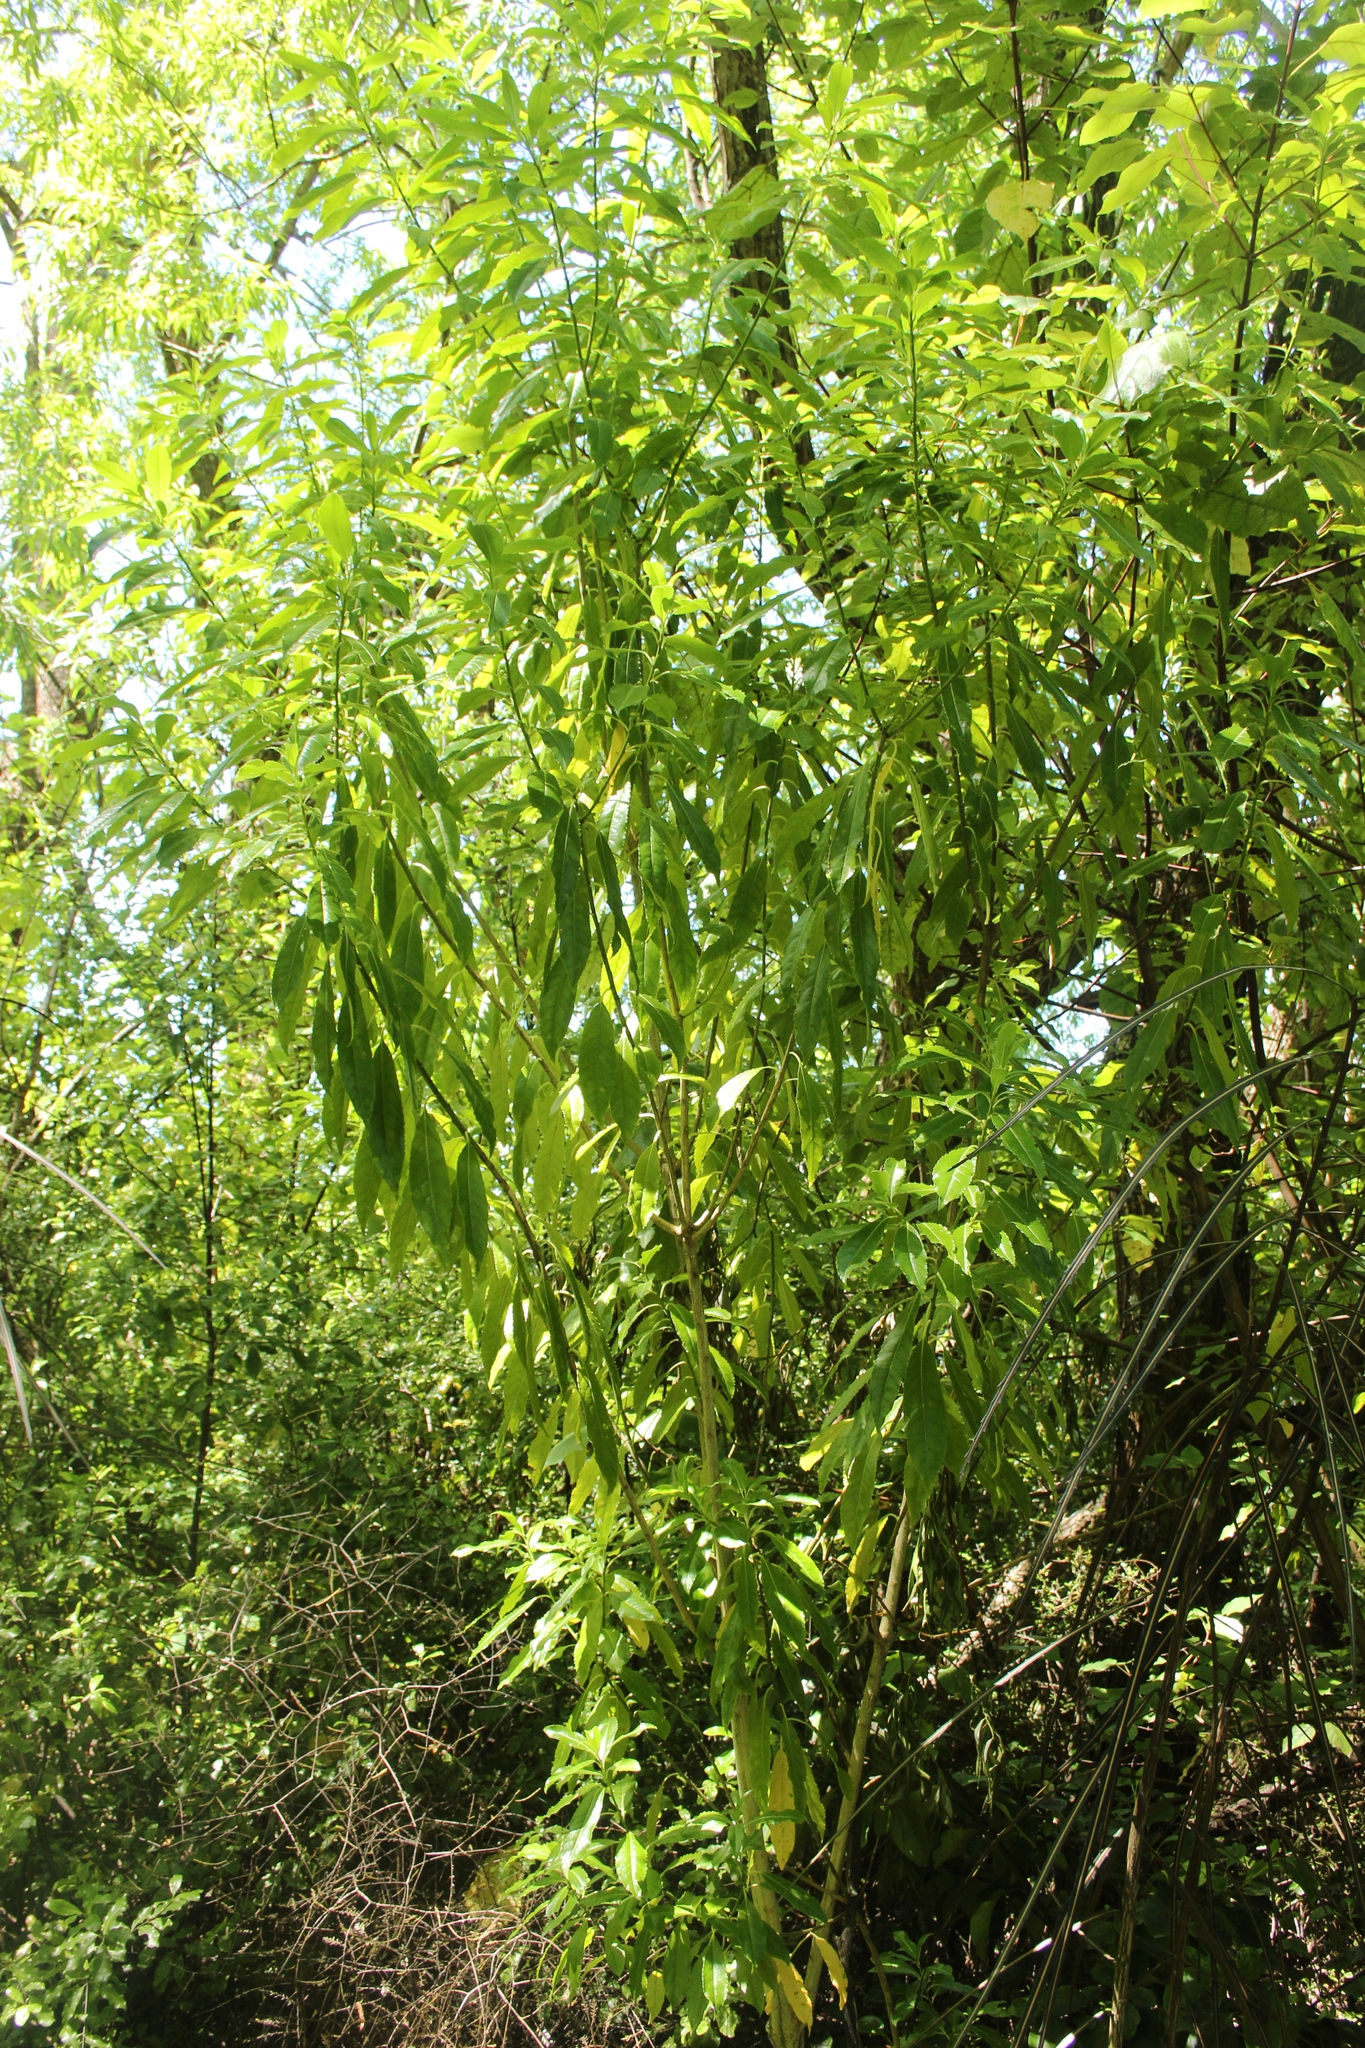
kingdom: Plantae
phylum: Tracheophyta
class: Magnoliopsida
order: Malpighiales
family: Violaceae
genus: Melicytus
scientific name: Melicytus lanceolatus
